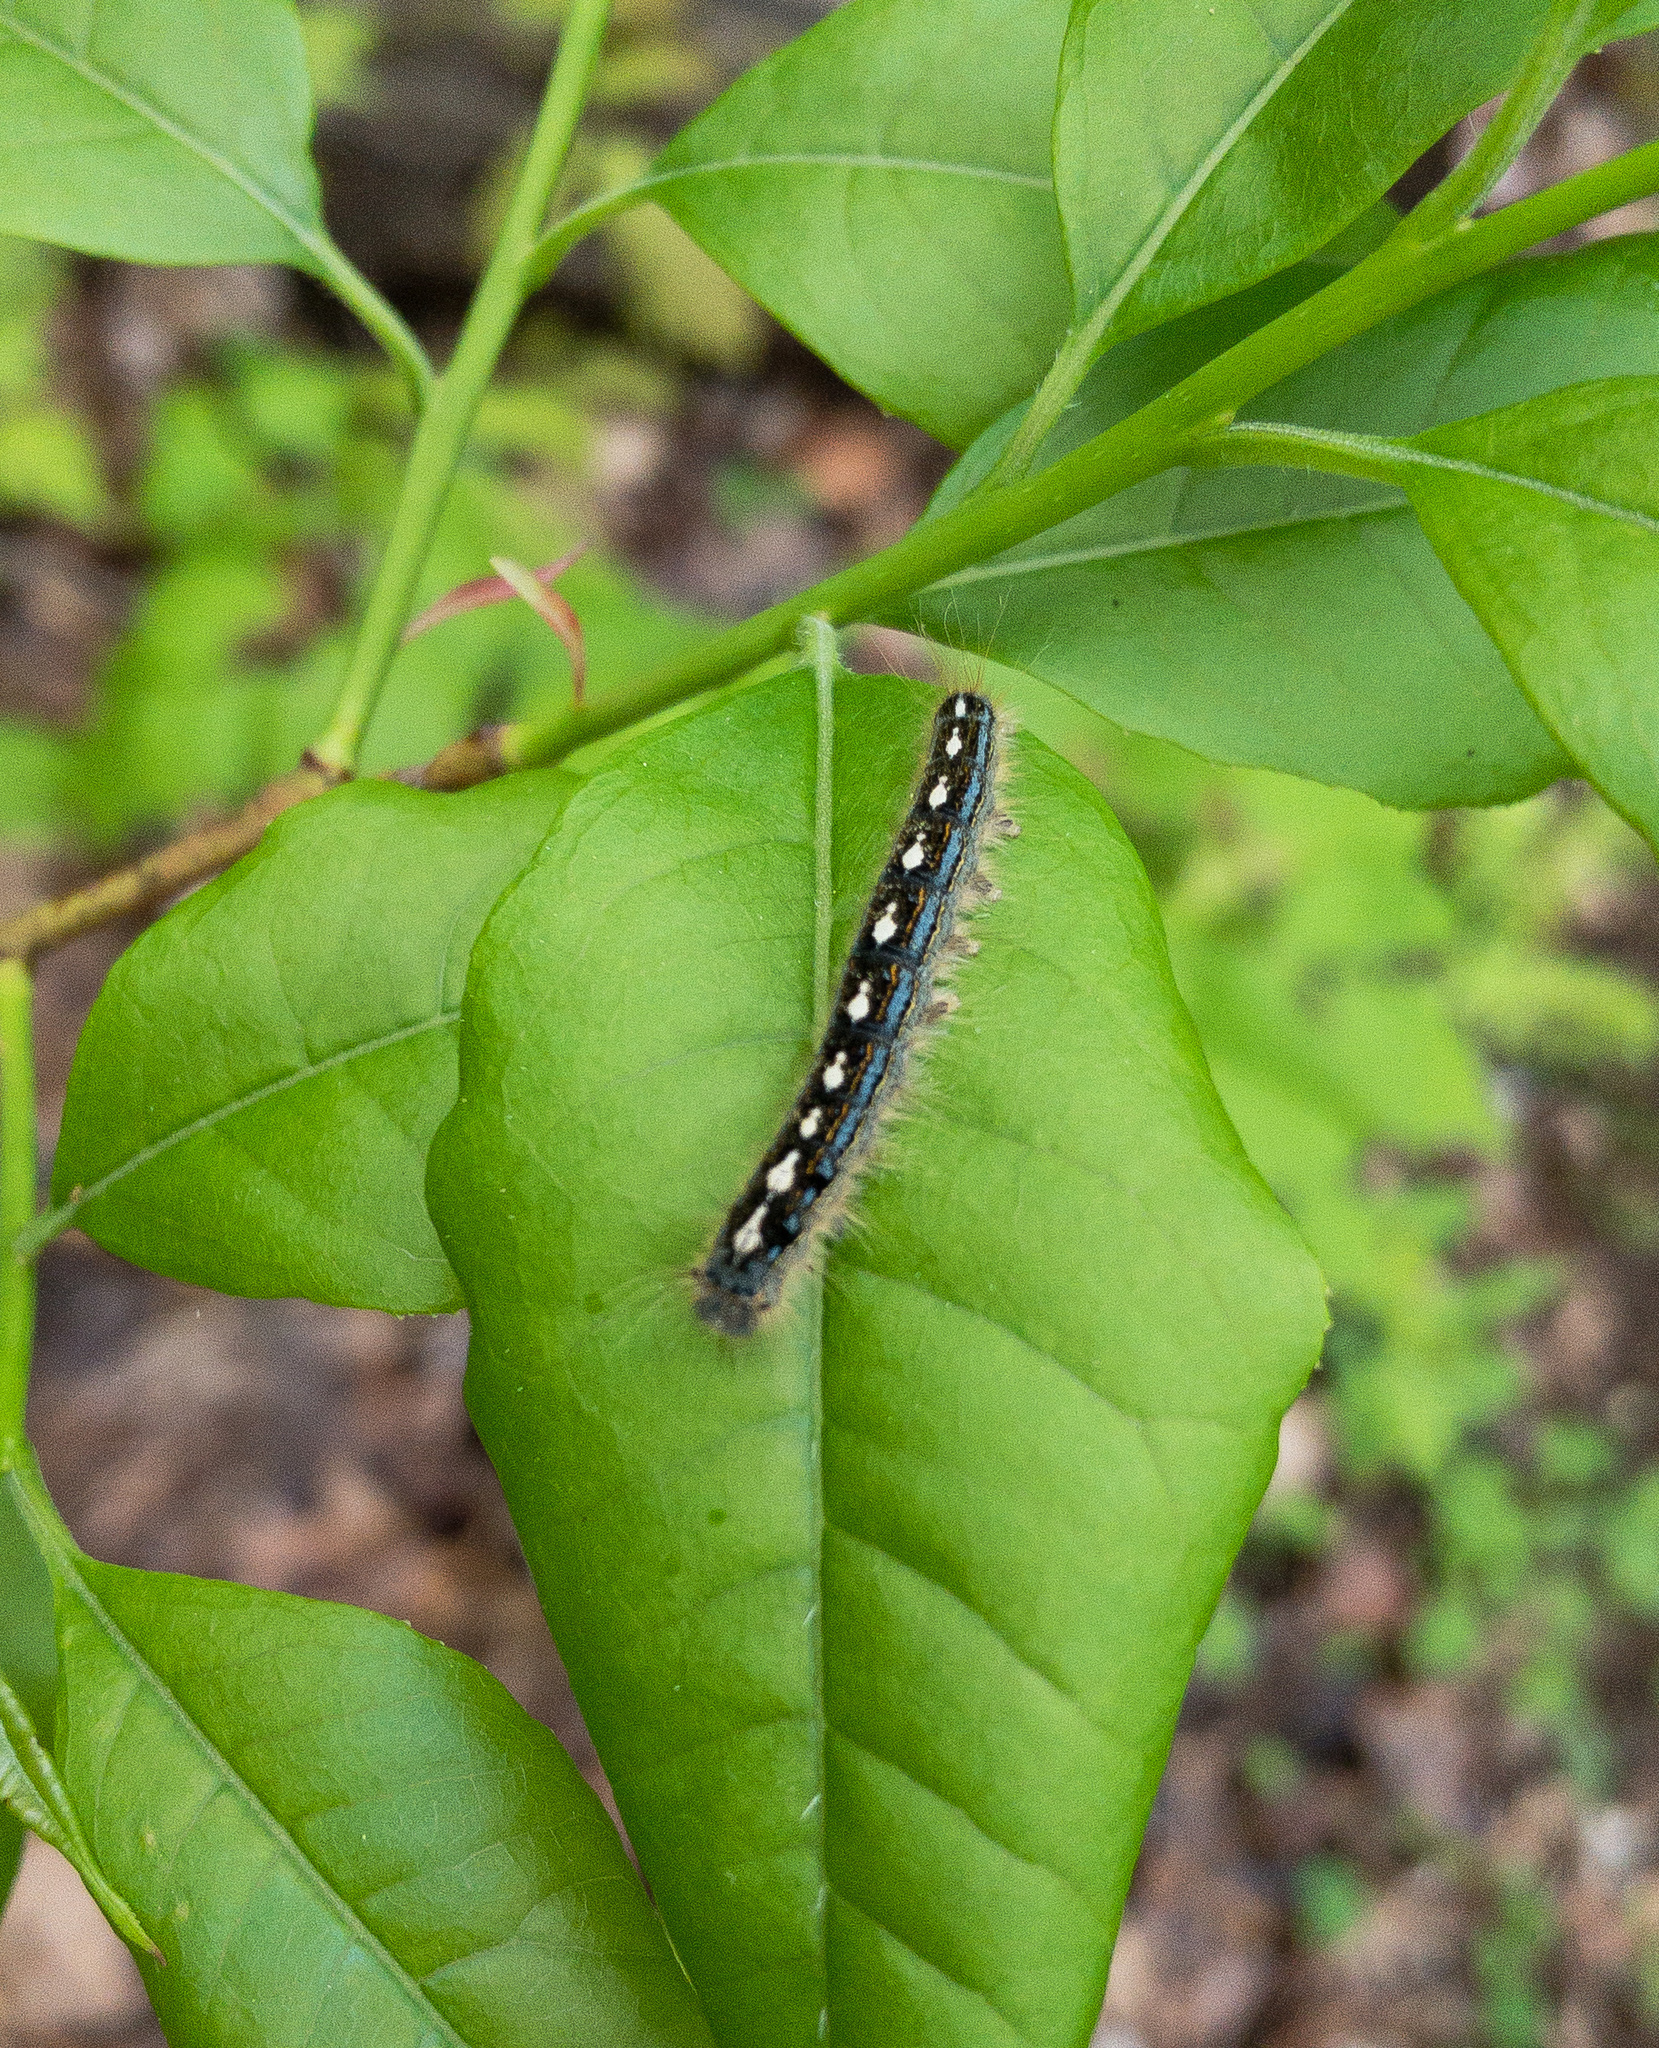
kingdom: Animalia
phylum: Arthropoda
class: Insecta
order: Lepidoptera
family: Lasiocampidae
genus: Malacosoma
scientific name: Malacosoma disstria
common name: Forest tent caterpillar
